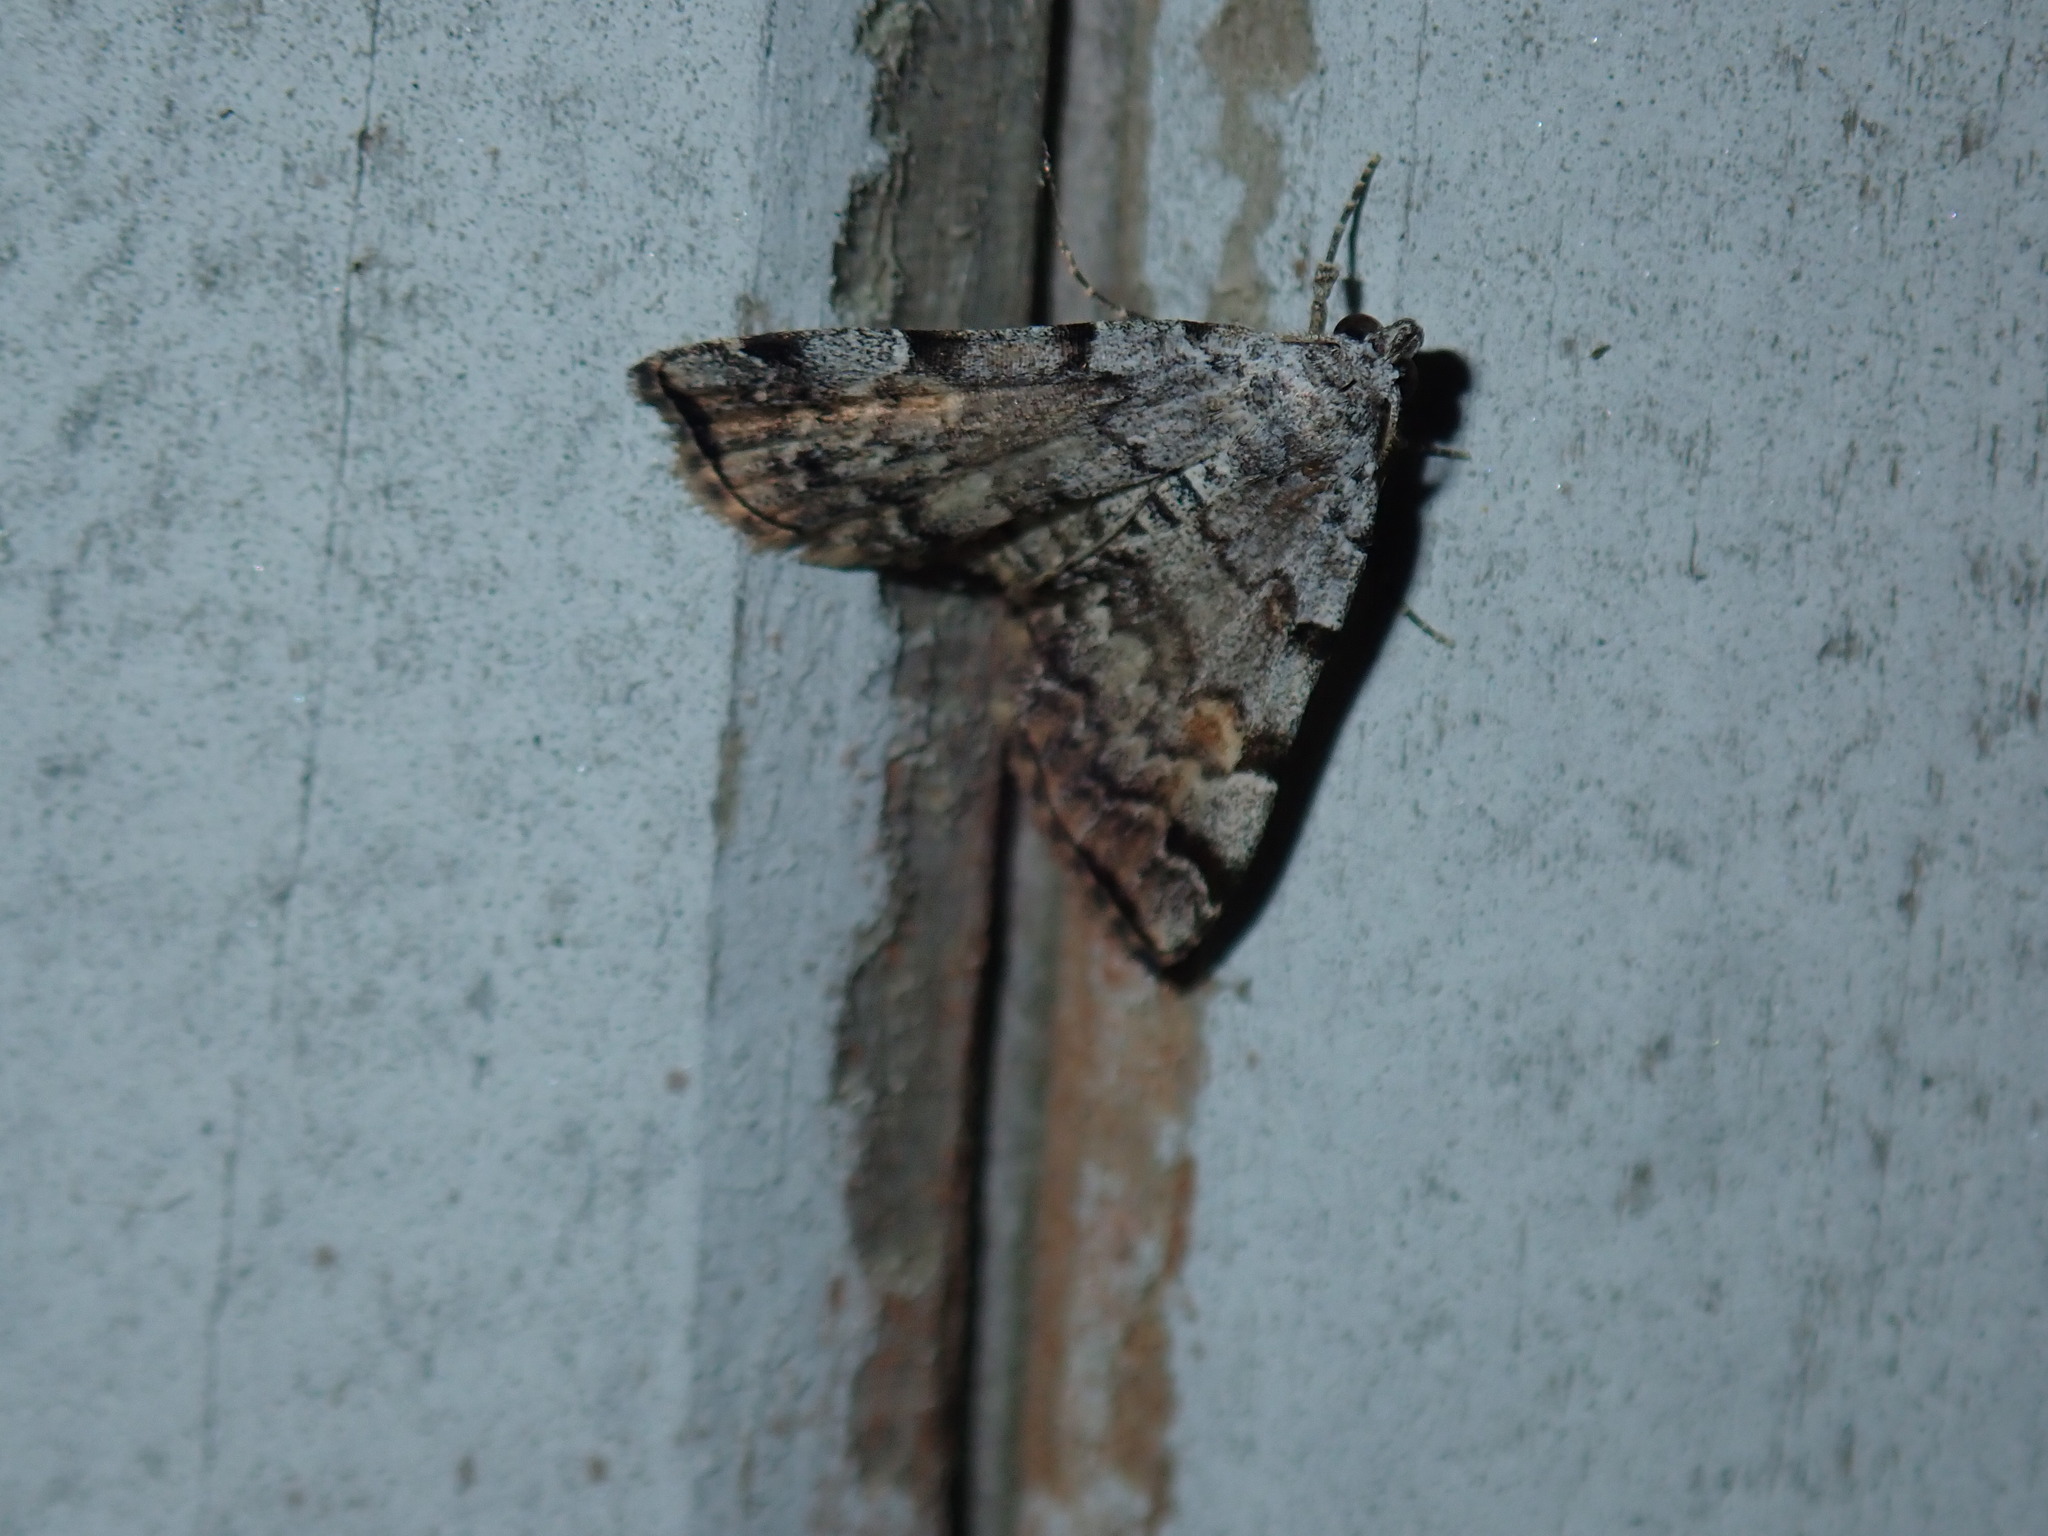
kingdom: Animalia
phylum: Arthropoda
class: Insecta
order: Lepidoptera
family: Erebidae
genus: Idia
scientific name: Idia americalis
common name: American idia moth
